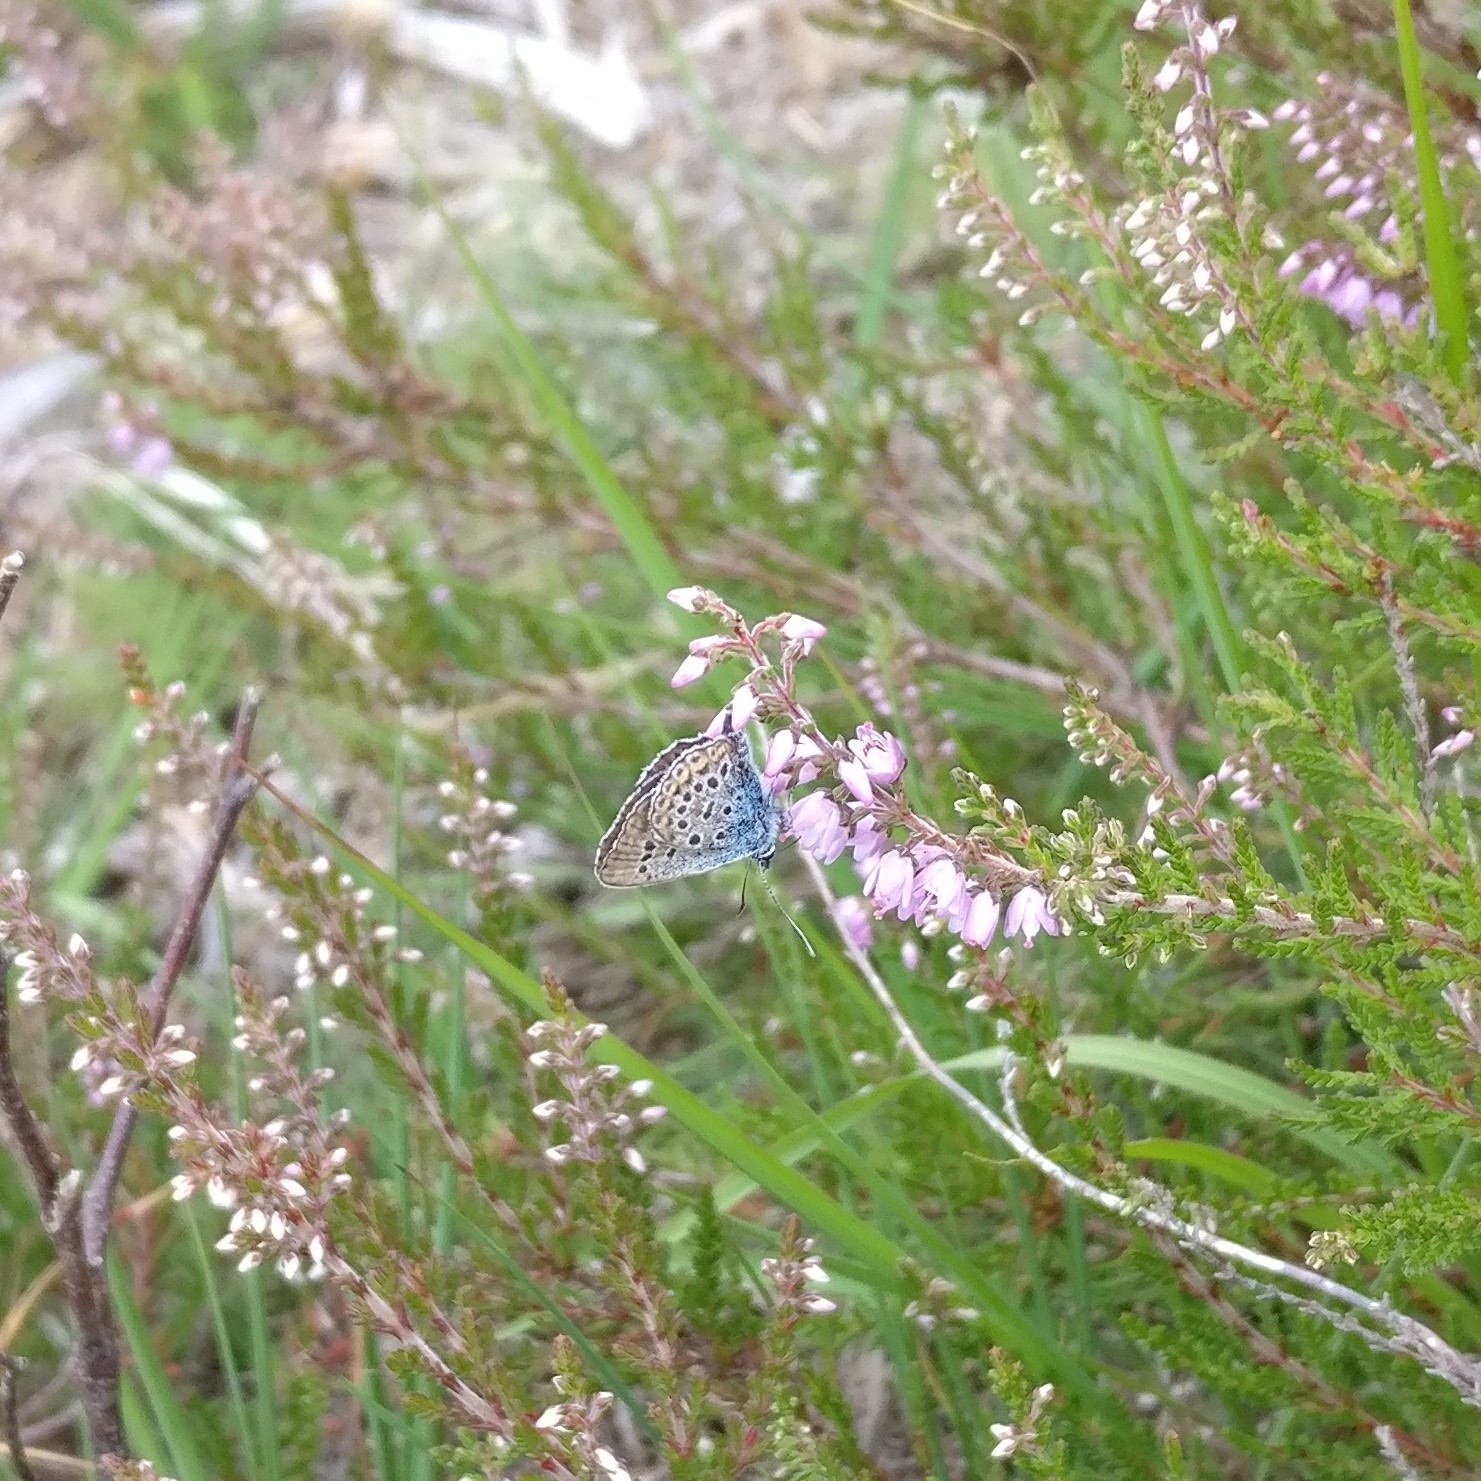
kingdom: Animalia
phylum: Arthropoda
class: Insecta
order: Lepidoptera
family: Lycaenidae
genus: Plebejus
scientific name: Plebejus argus
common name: Silver-studded blue
